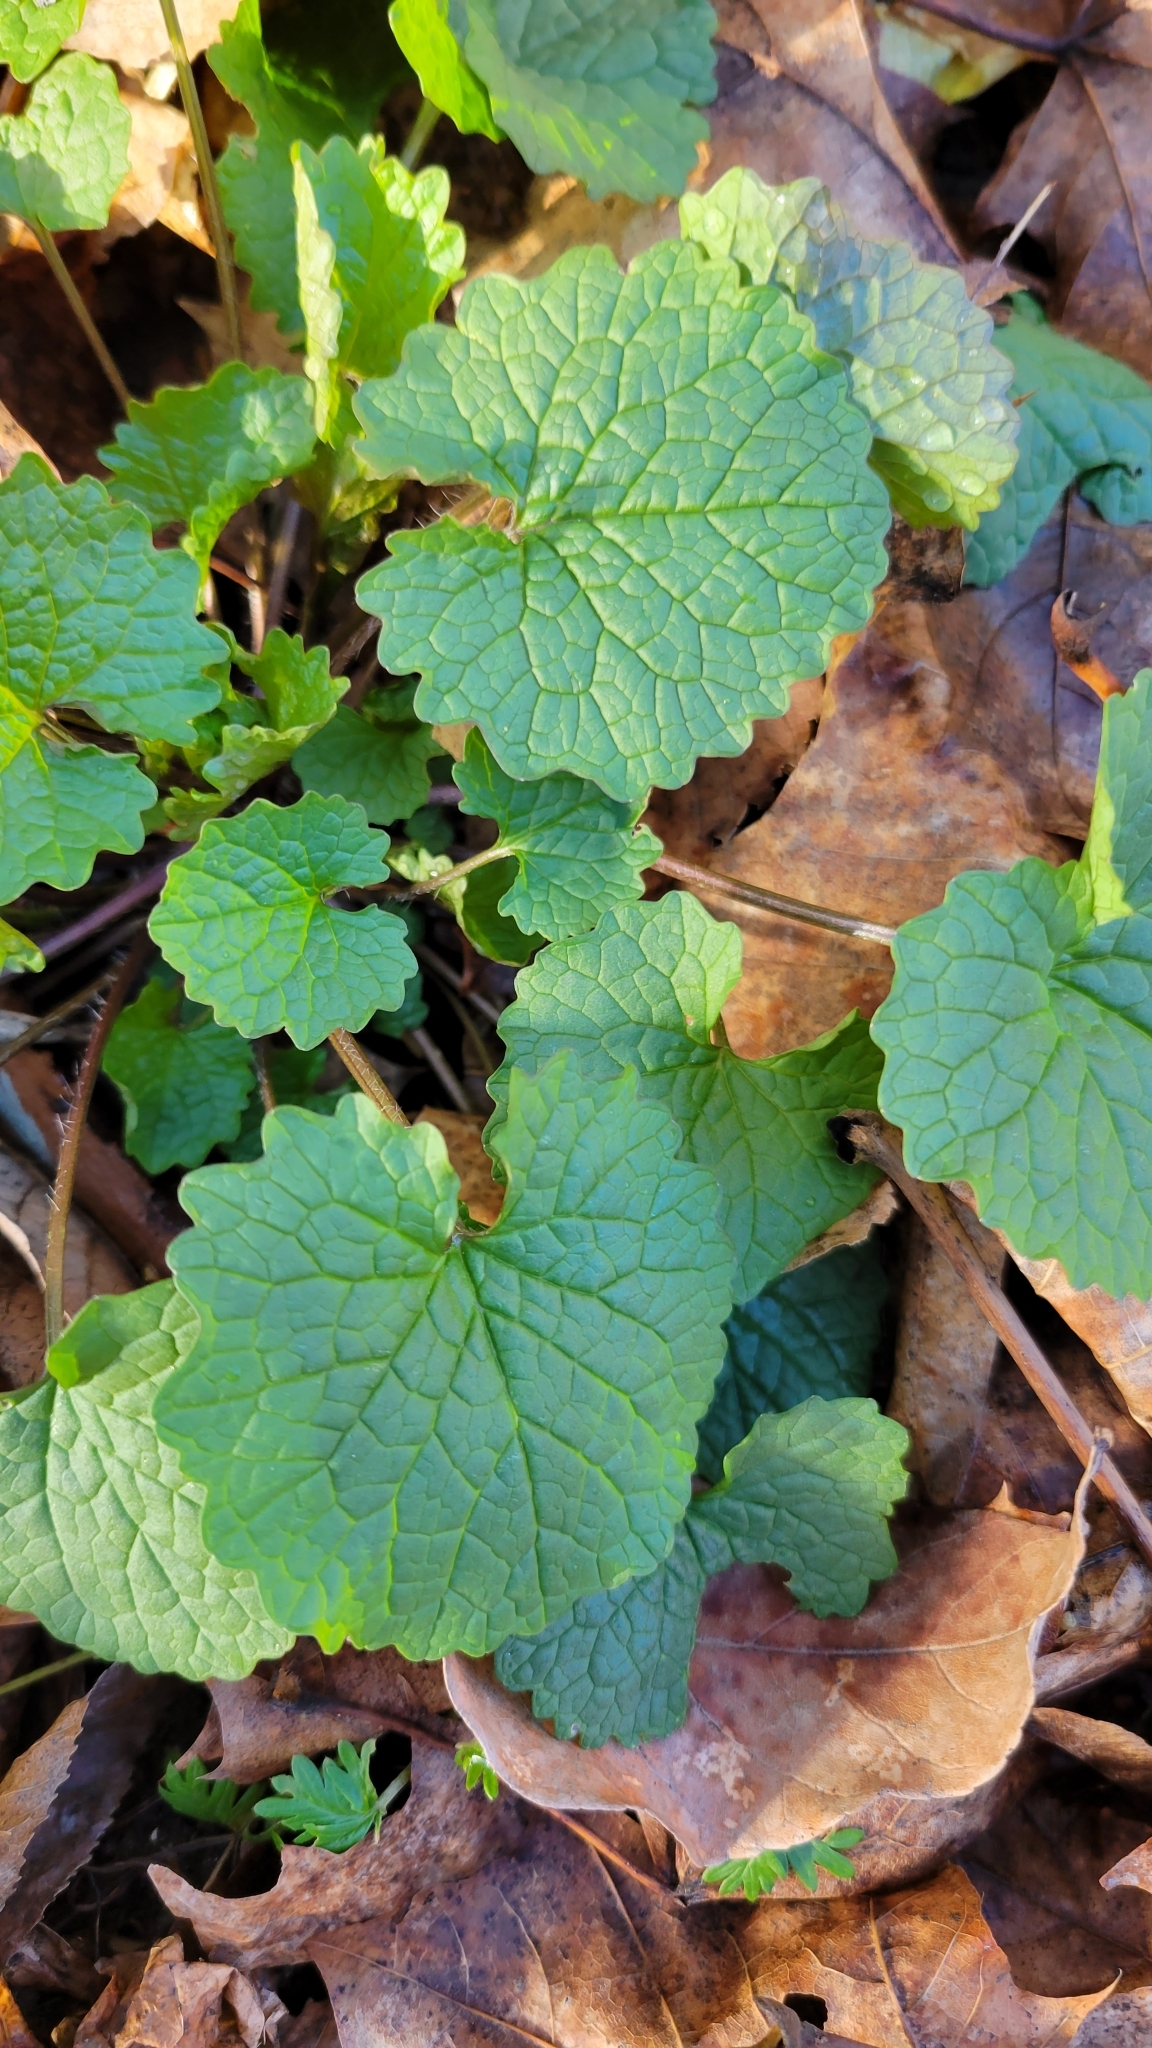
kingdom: Plantae
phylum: Tracheophyta
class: Magnoliopsida
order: Brassicales
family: Brassicaceae
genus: Alliaria
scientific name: Alliaria petiolata
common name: Garlic mustard
